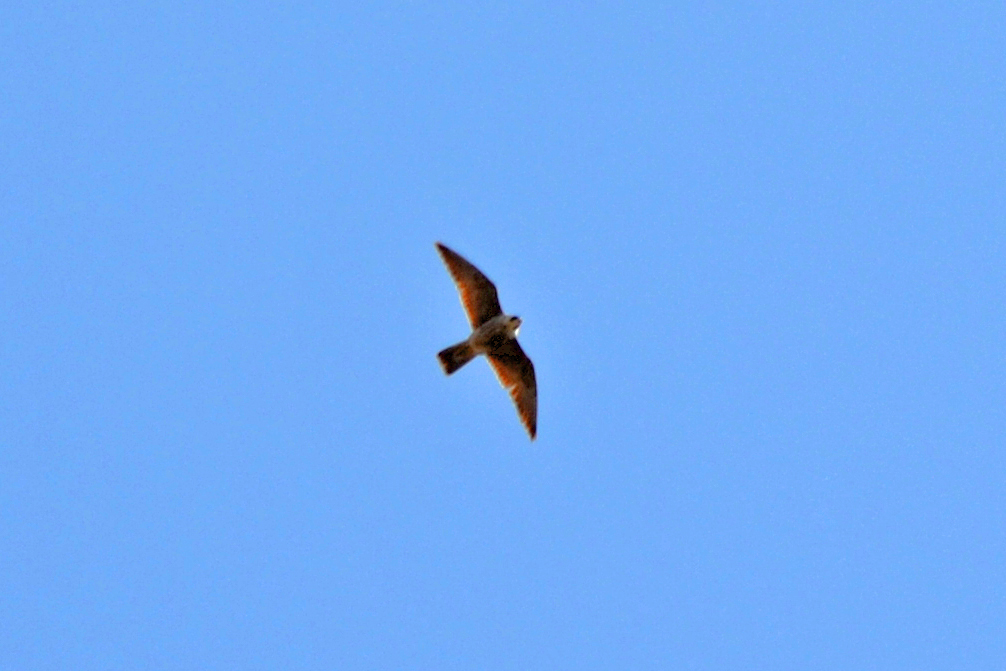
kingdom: Animalia
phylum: Chordata
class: Aves
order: Falconiformes
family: Falconidae
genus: Falco
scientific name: Falco peregrinus
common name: Peregrine falcon
